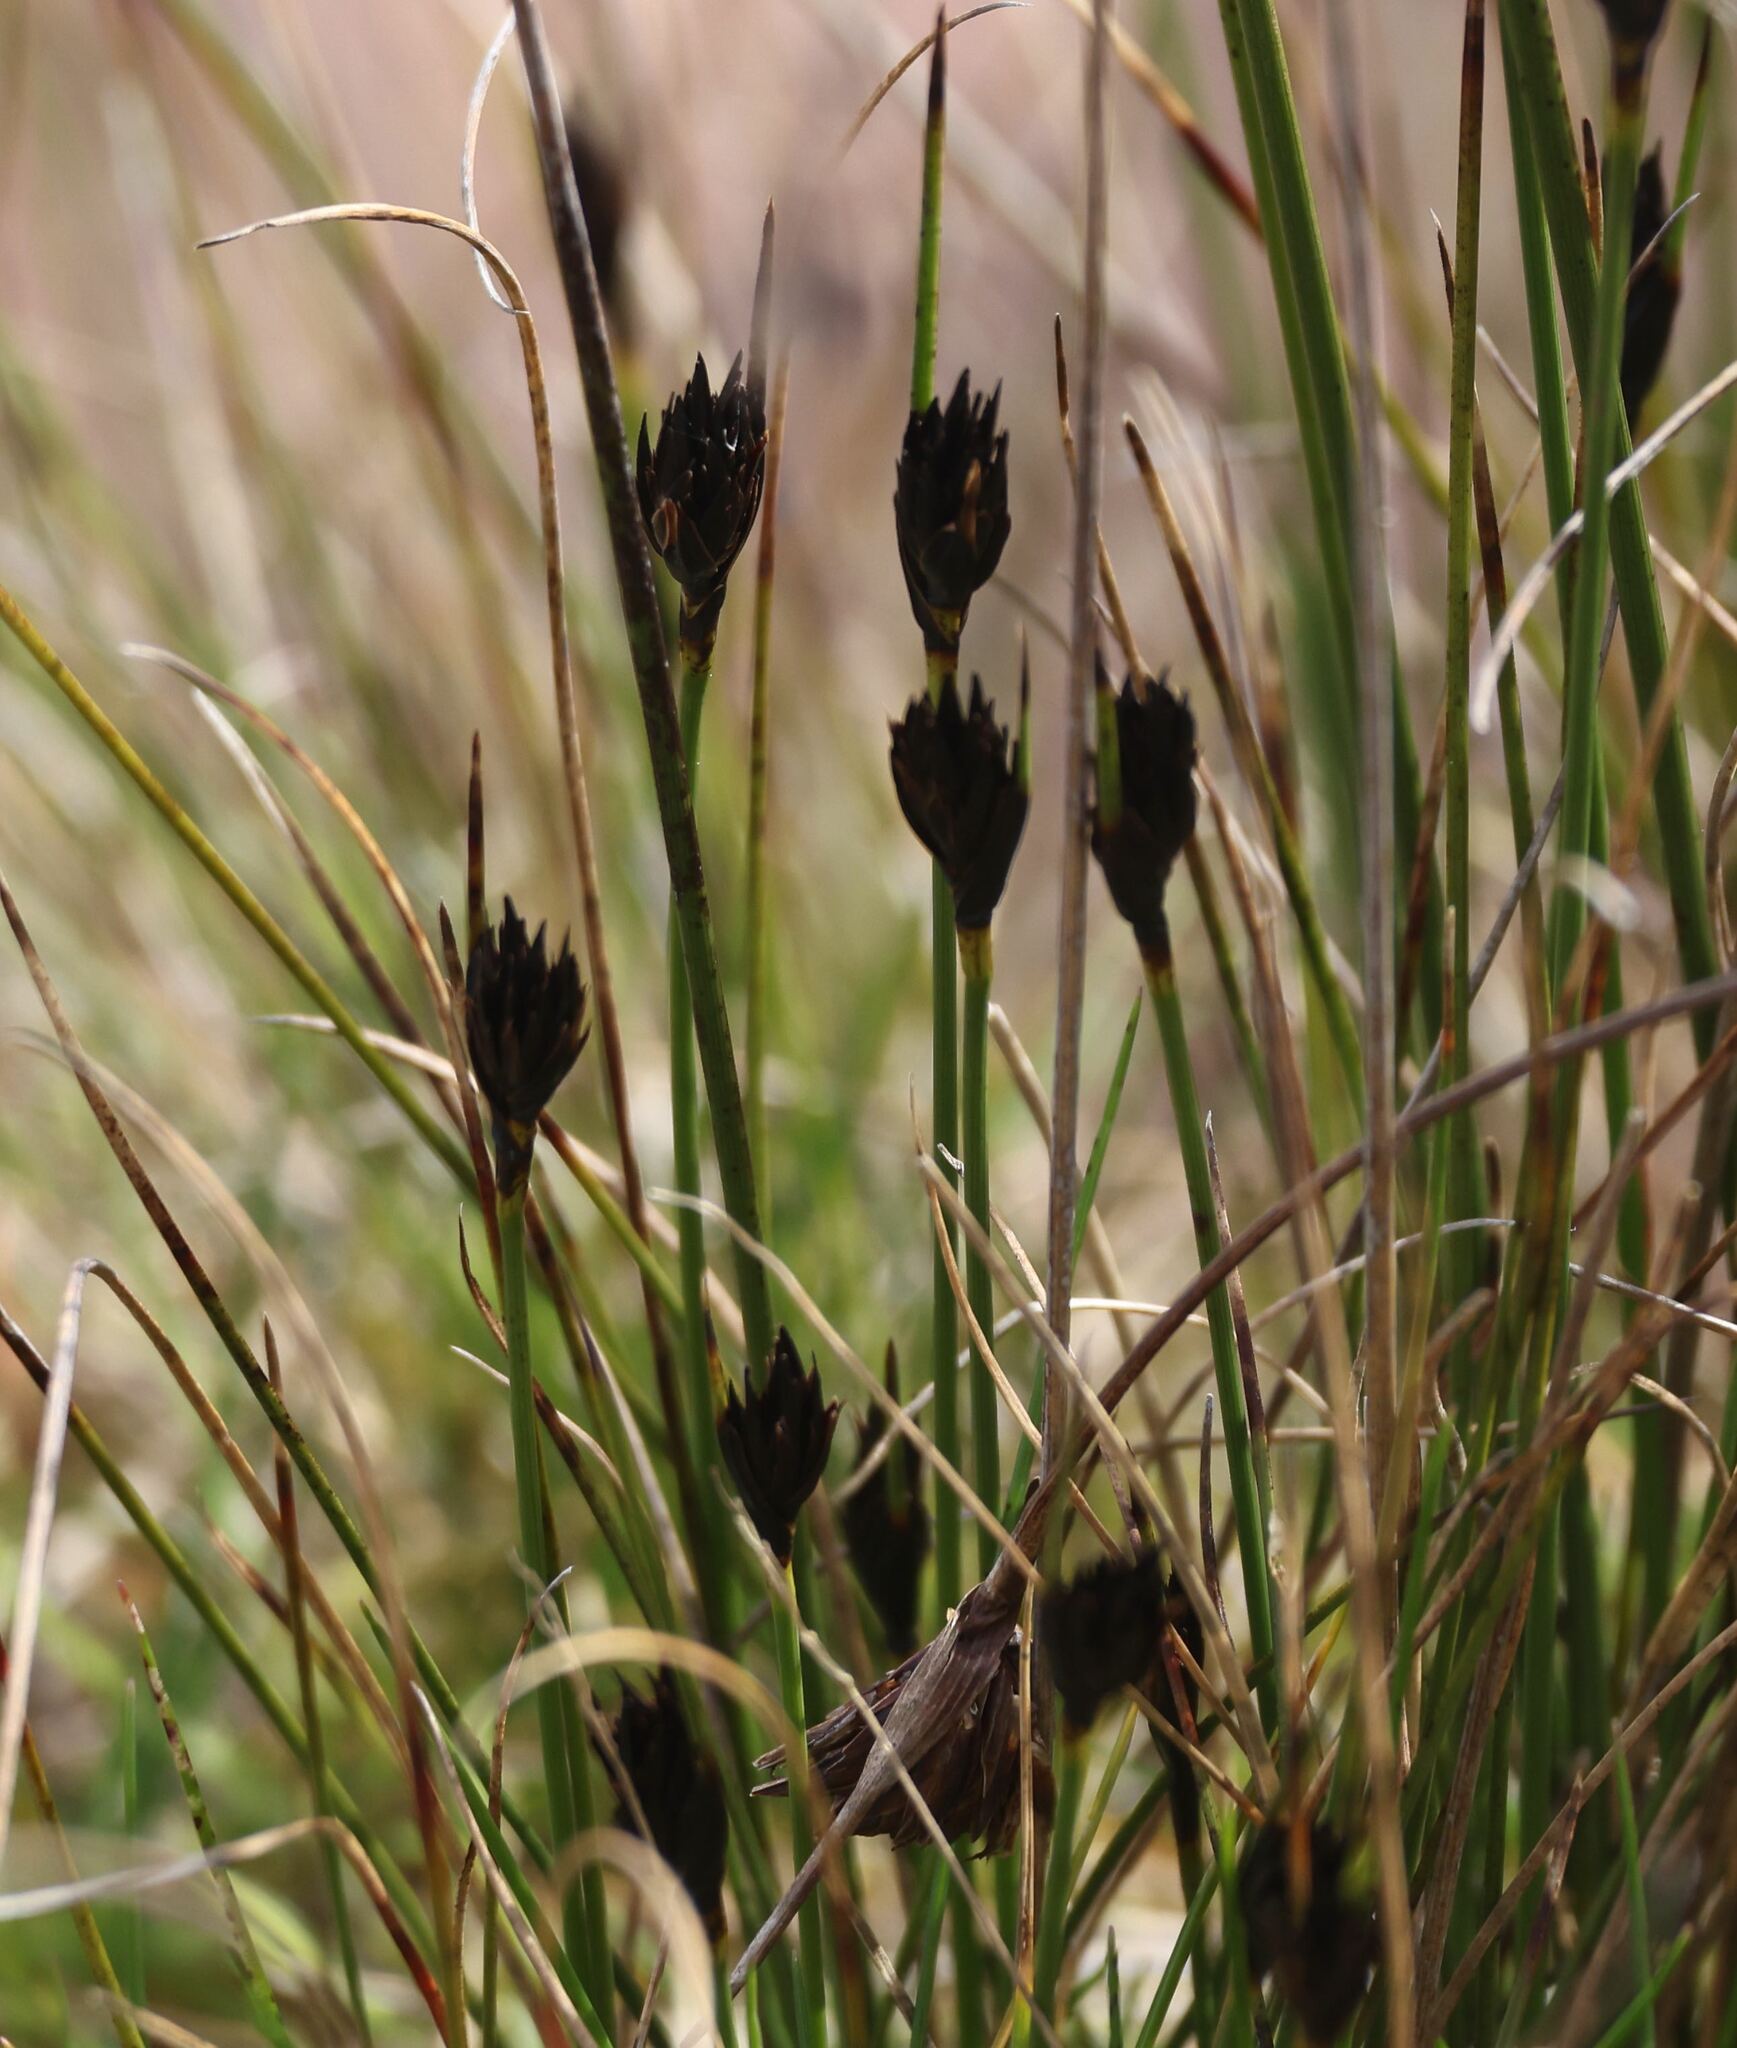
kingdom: Plantae
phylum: Tracheophyta
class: Liliopsida
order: Poales
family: Cyperaceae
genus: Schoenus
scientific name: Schoenus nigricans
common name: Black bog-rush
